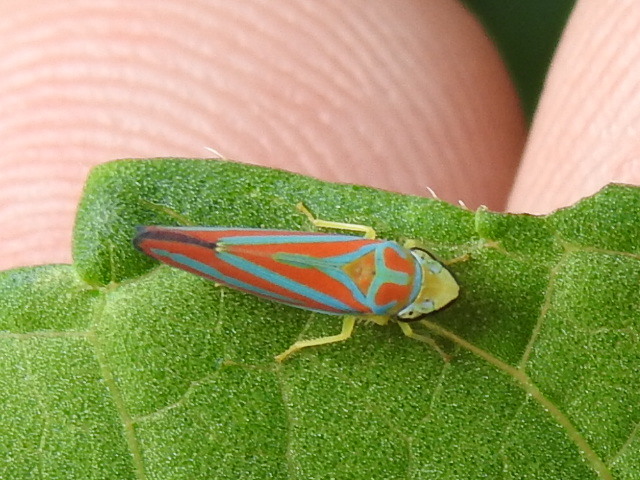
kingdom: Animalia
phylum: Arthropoda
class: Insecta
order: Hemiptera
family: Cicadellidae
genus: Graphocephala
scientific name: Graphocephala coccinea
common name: Candy-striped leafhopper
